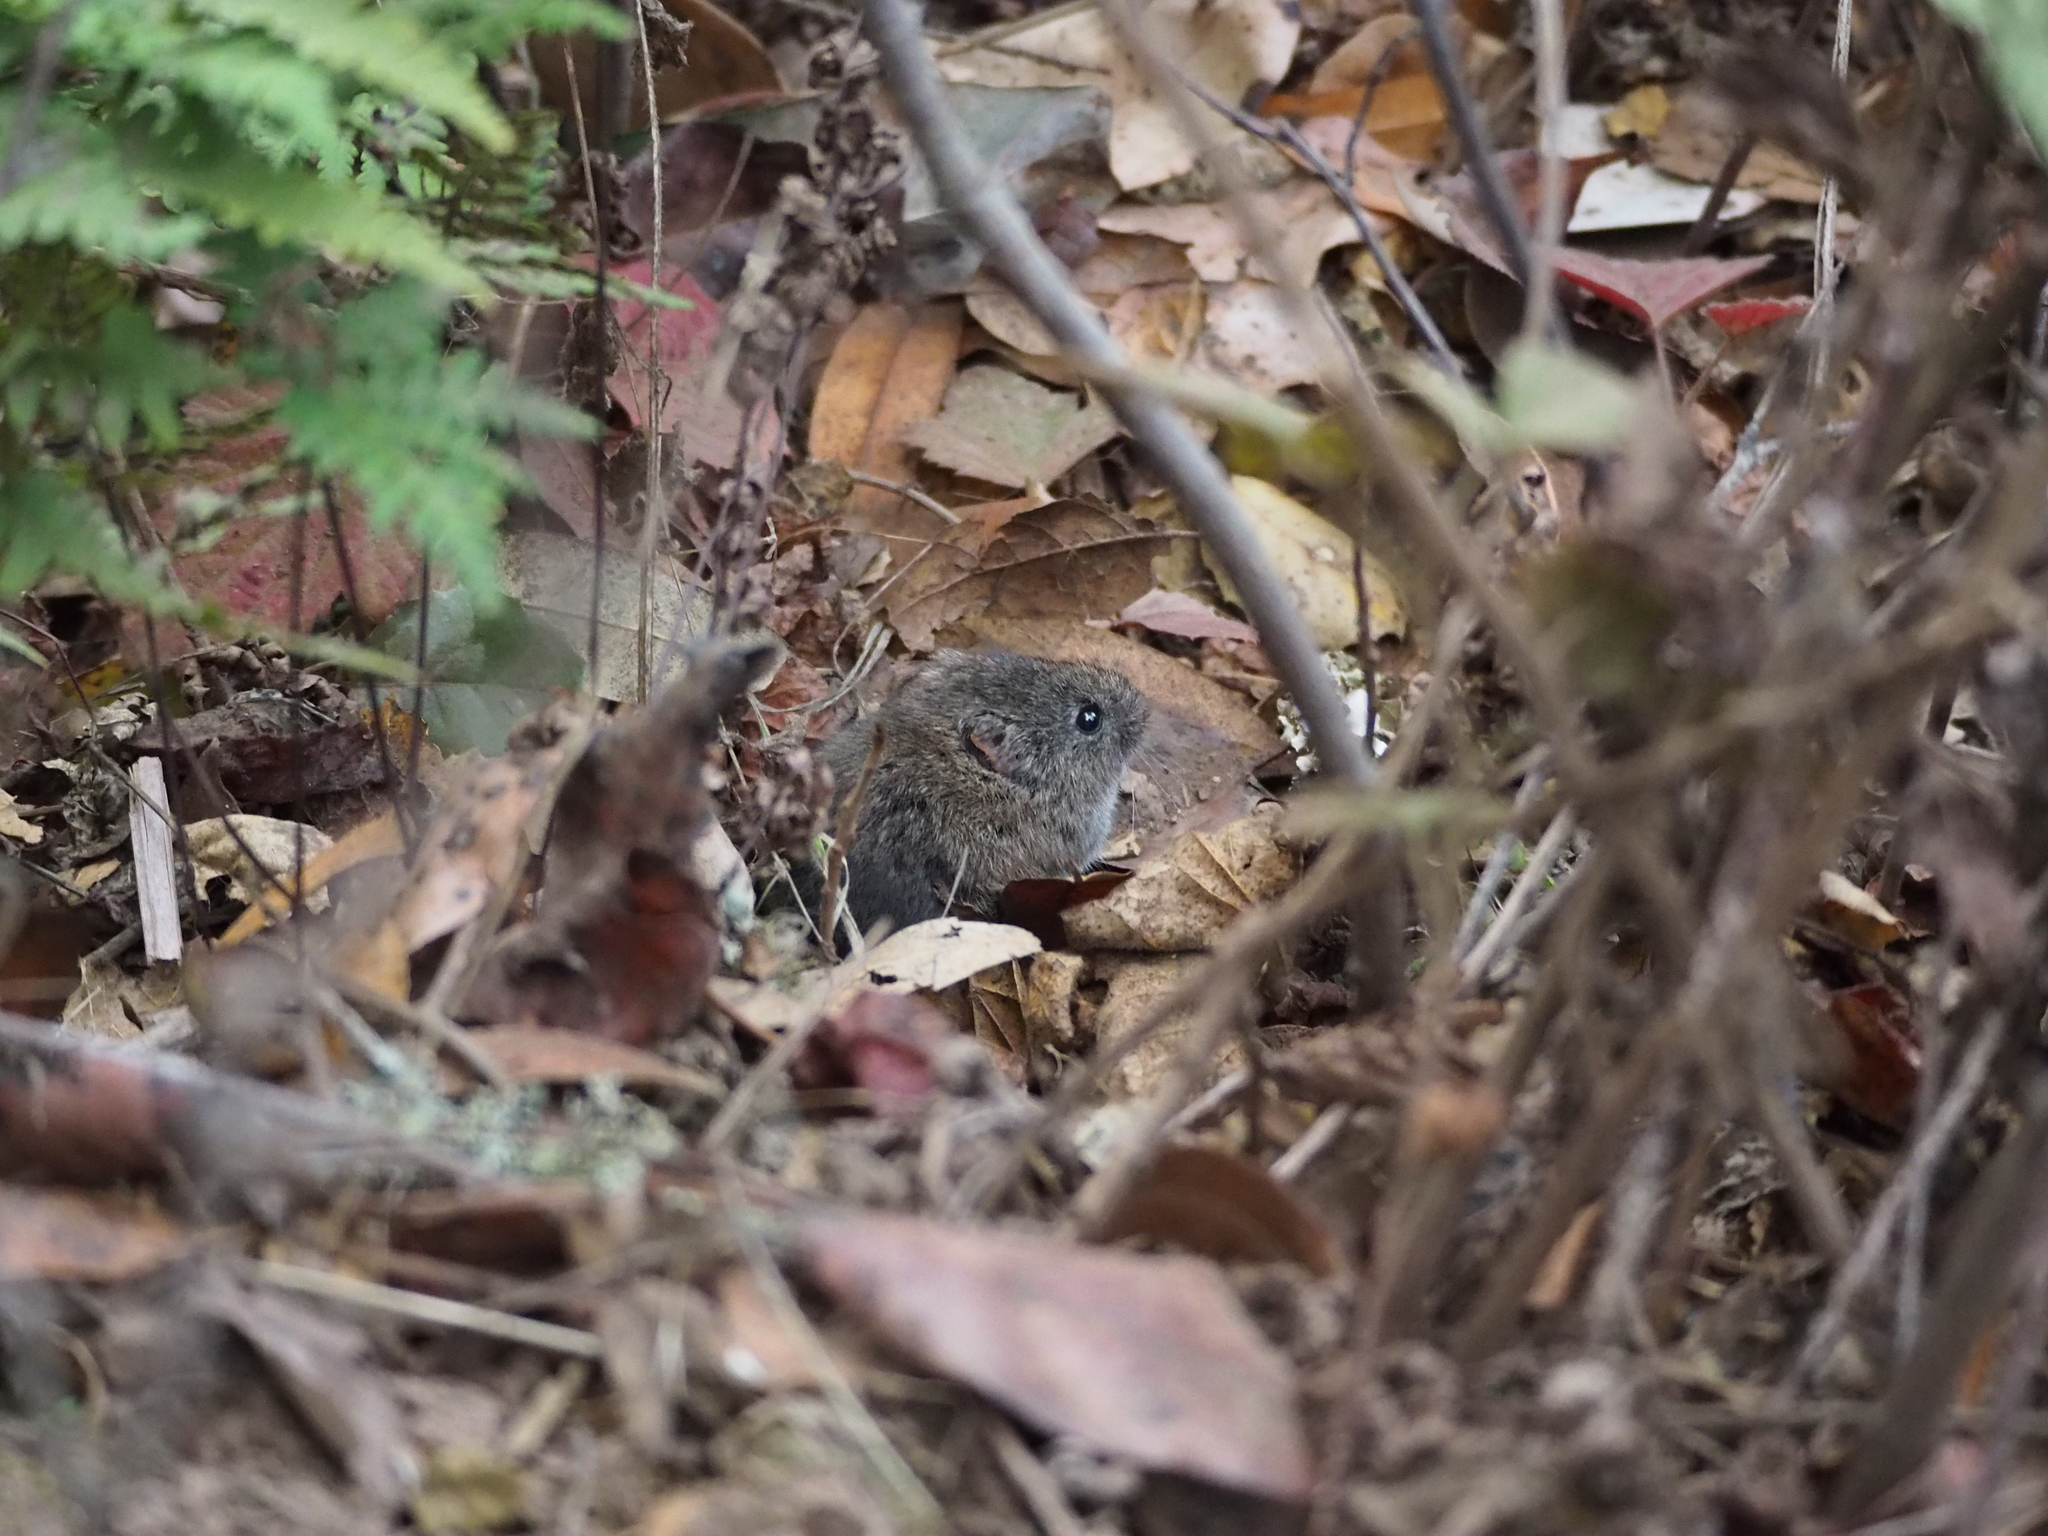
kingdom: Animalia
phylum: Chordata
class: Mammalia
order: Rodentia
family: Cricetidae
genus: Microtus
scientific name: Microtus californicus
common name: California vole
